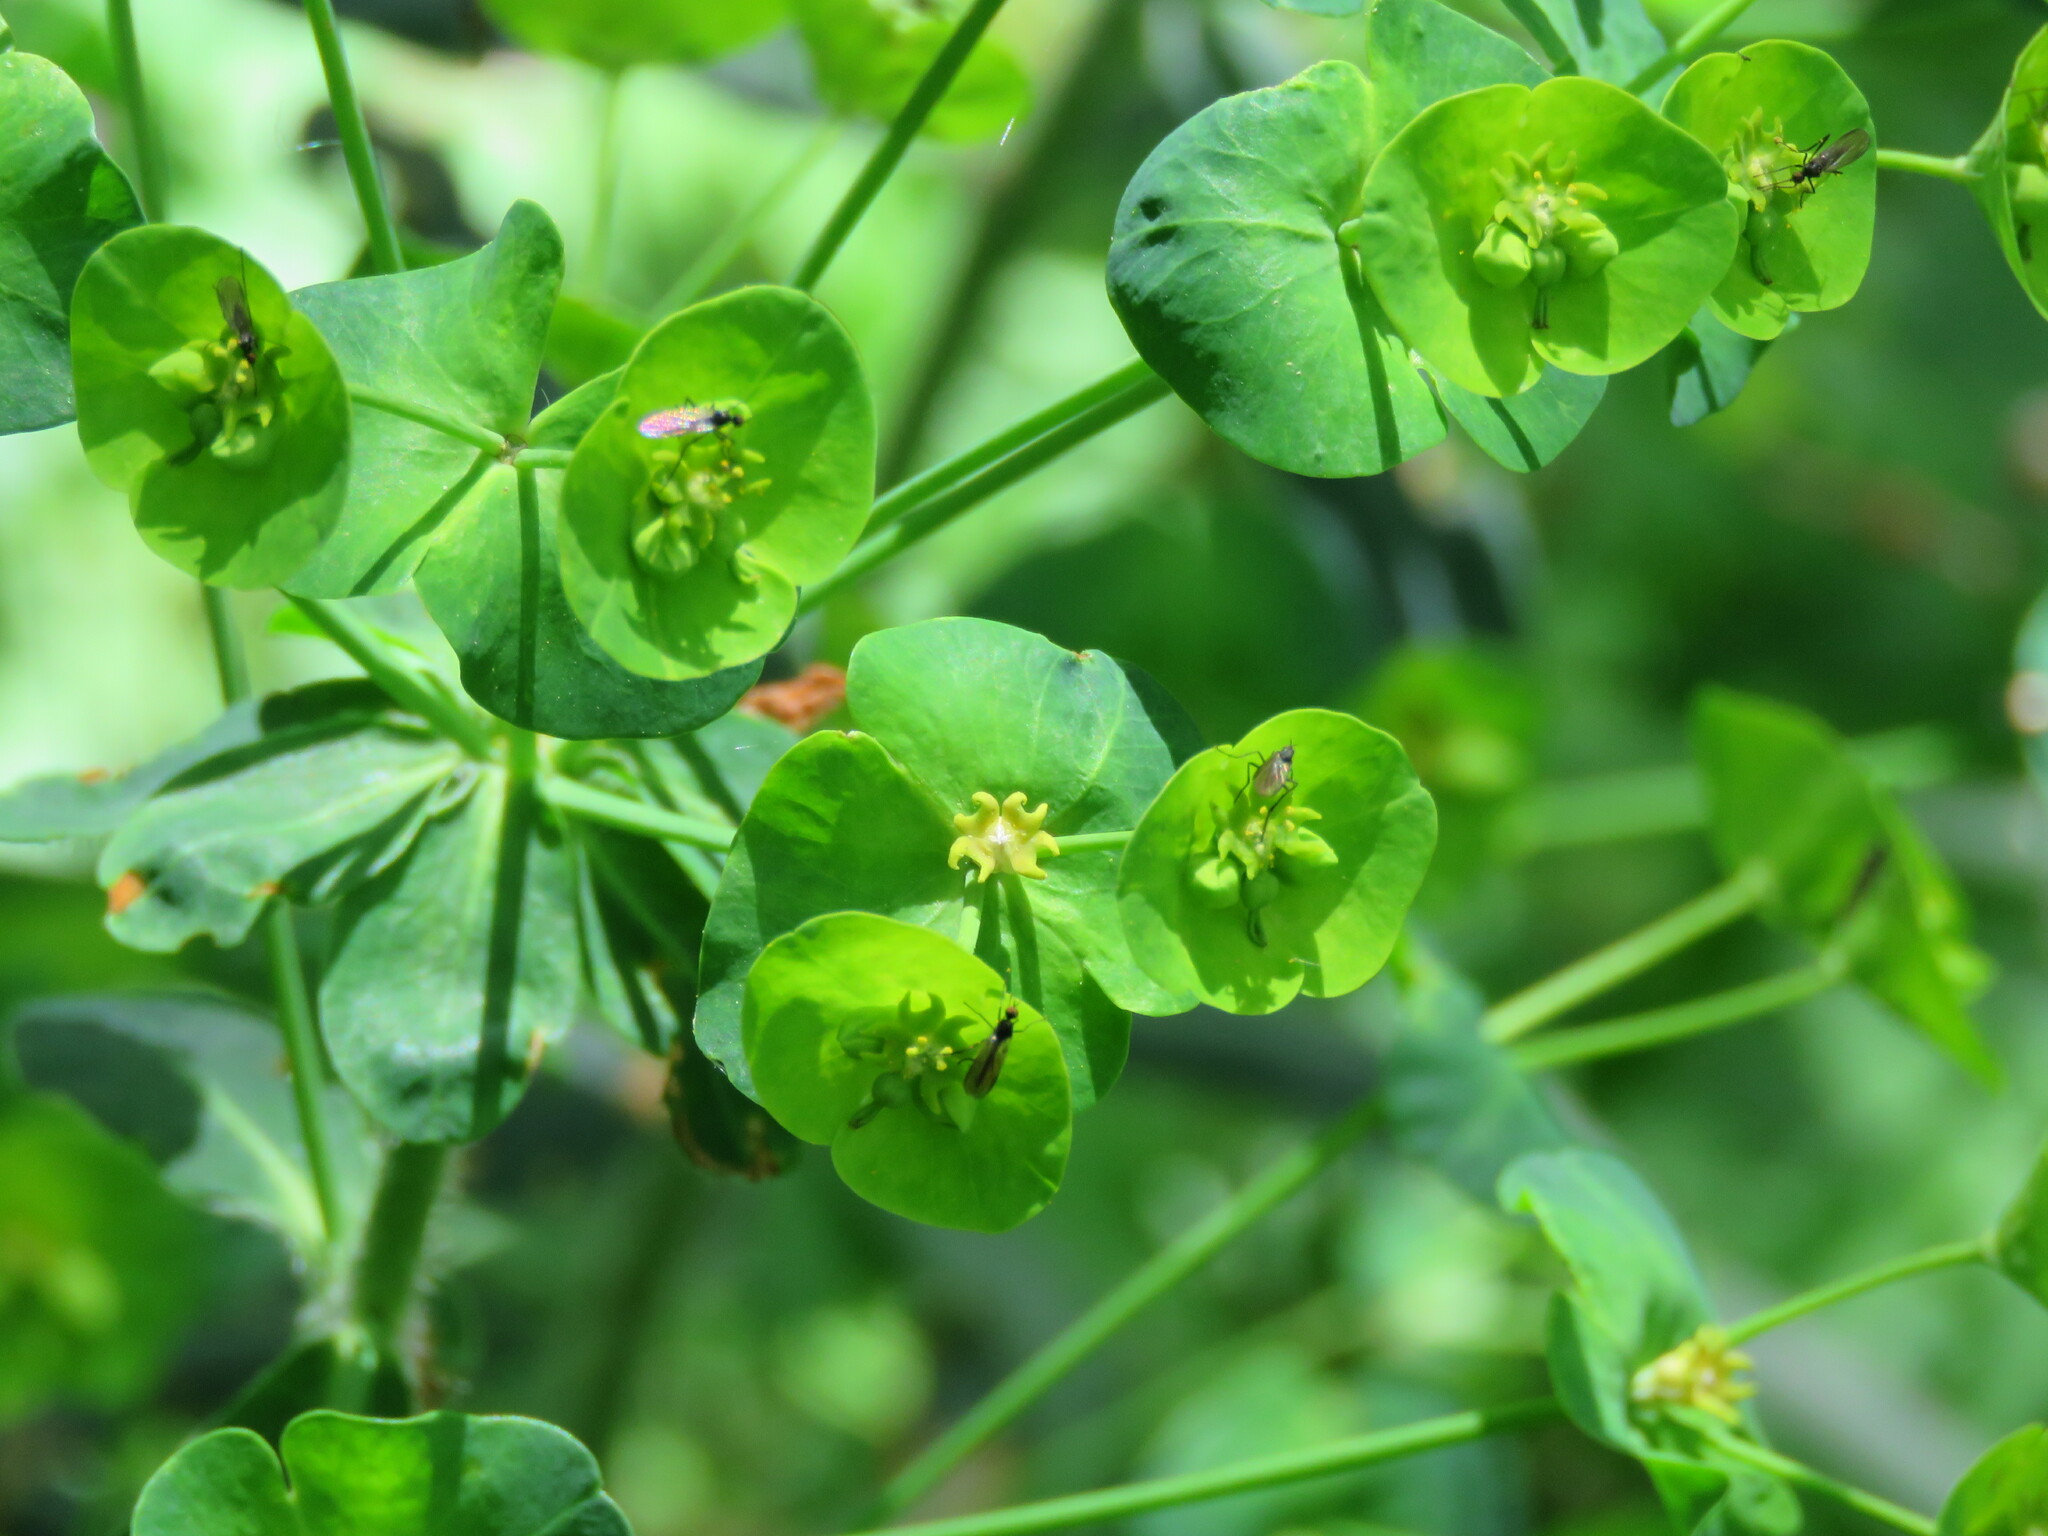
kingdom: Plantae
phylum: Tracheophyta
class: Magnoliopsida
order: Malpighiales
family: Euphorbiaceae
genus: Euphorbia
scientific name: Euphorbia amygdaloides
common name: Wood spurge
